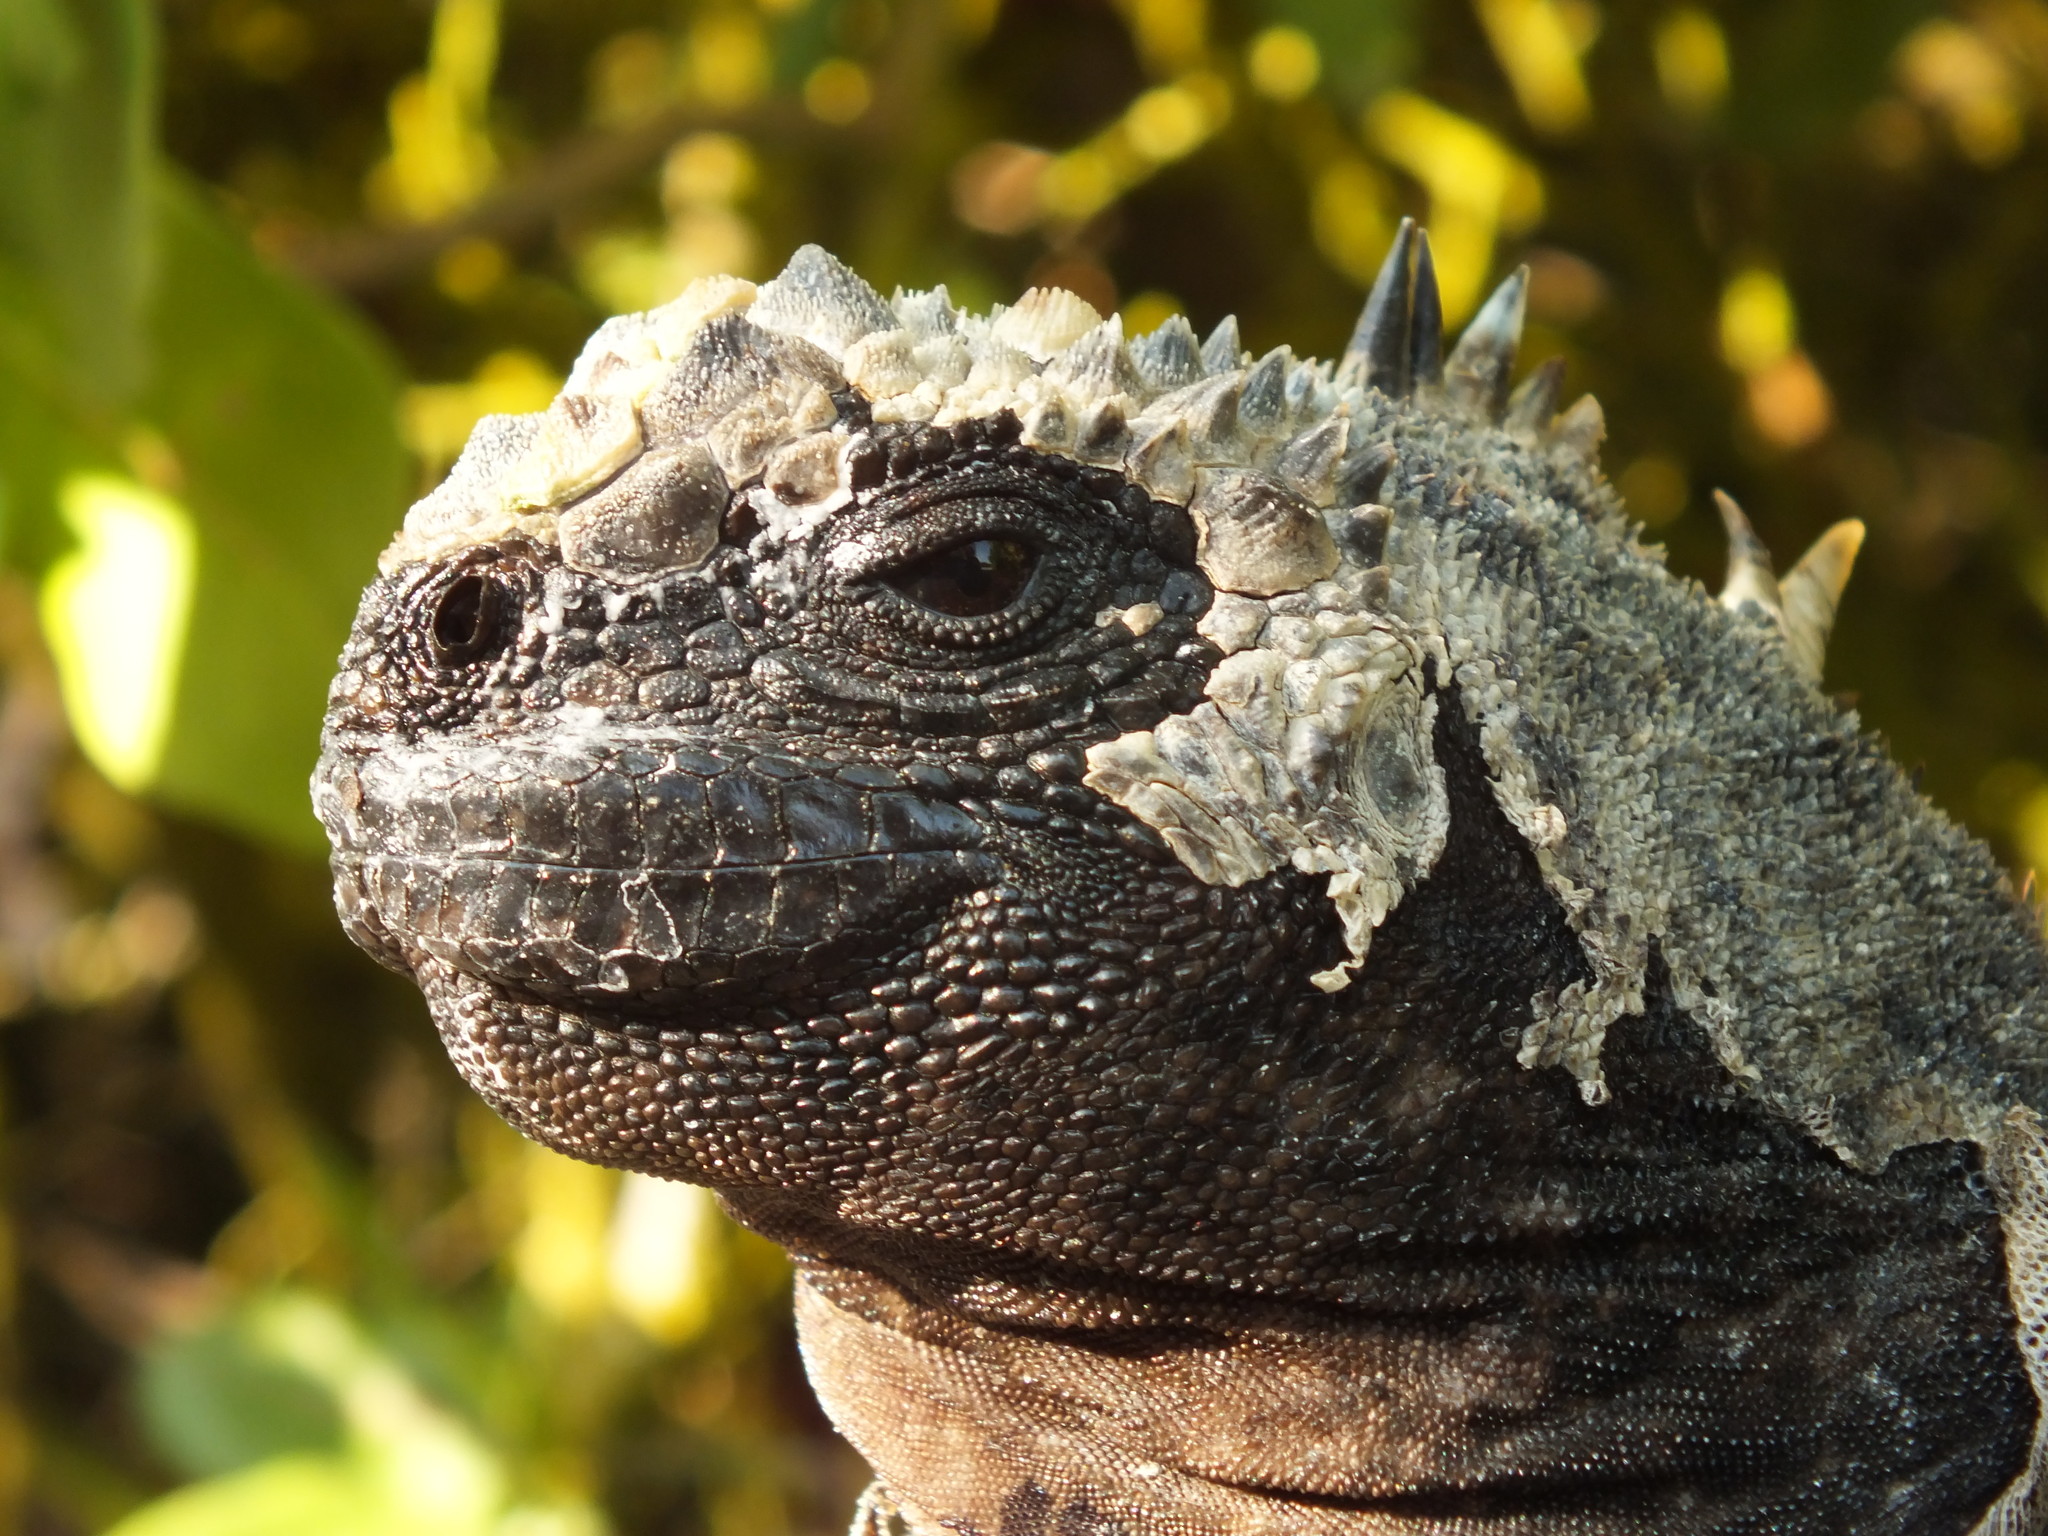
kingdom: Animalia
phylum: Chordata
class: Squamata
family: Iguanidae
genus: Amblyrhynchus
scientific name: Amblyrhynchus cristatus
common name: Marine iguana
